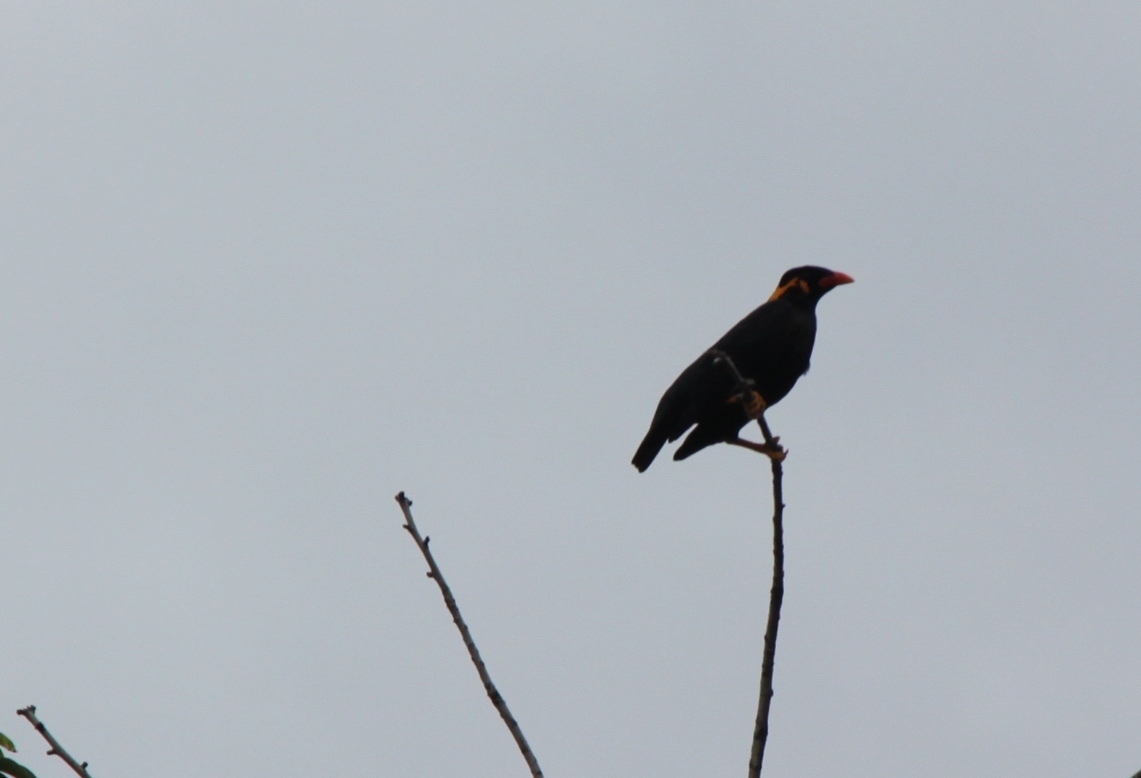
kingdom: Animalia
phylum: Chordata
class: Aves
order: Passeriformes
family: Sturnidae
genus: Gracula
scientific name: Gracula religiosa
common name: Common hill myna
